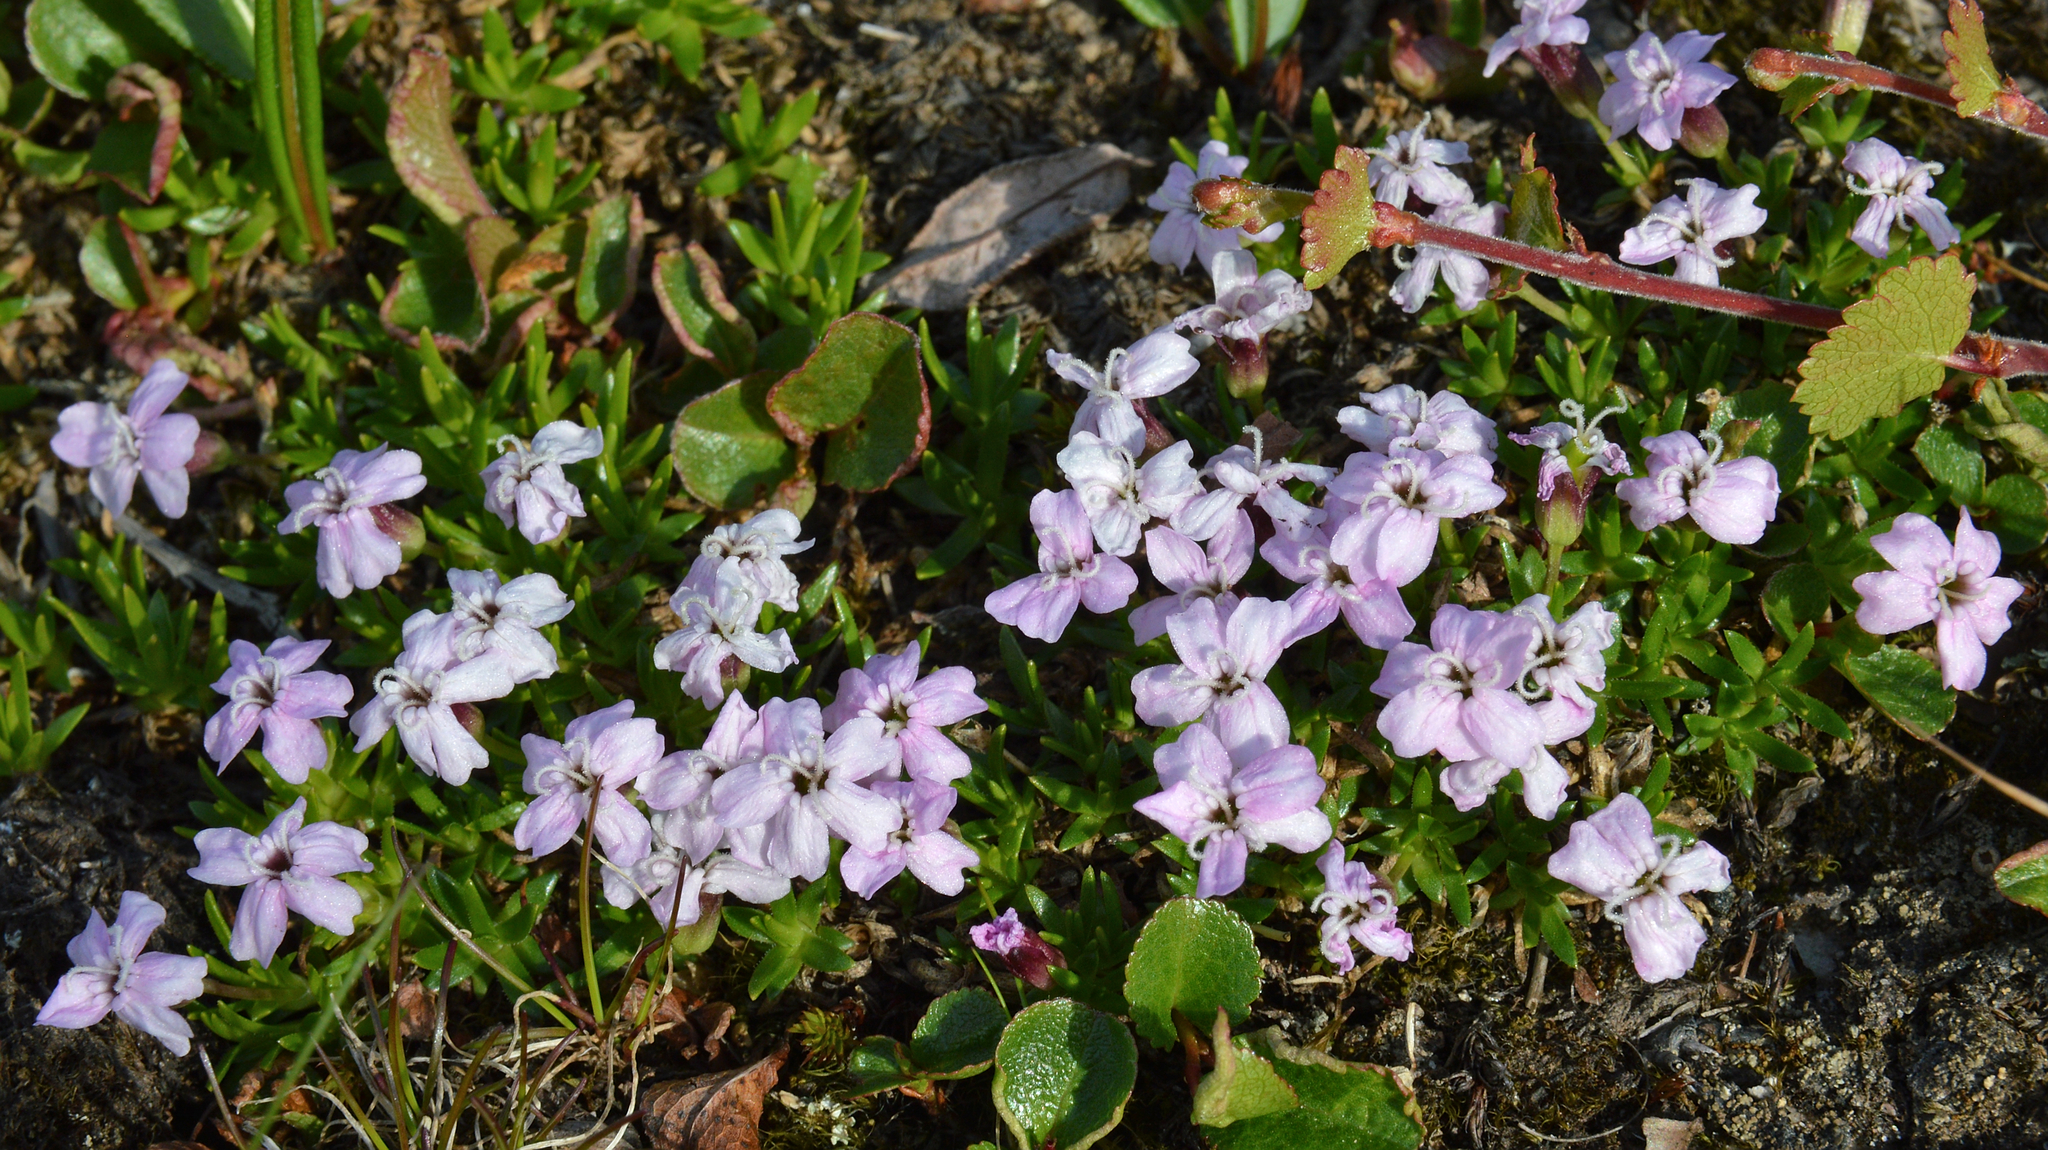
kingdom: Plantae
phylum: Tracheophyta
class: Magnoliopsida
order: Caryophyllales
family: Caryophyllaceae
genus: Silene
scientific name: Silene acaulis
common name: Moss campion
